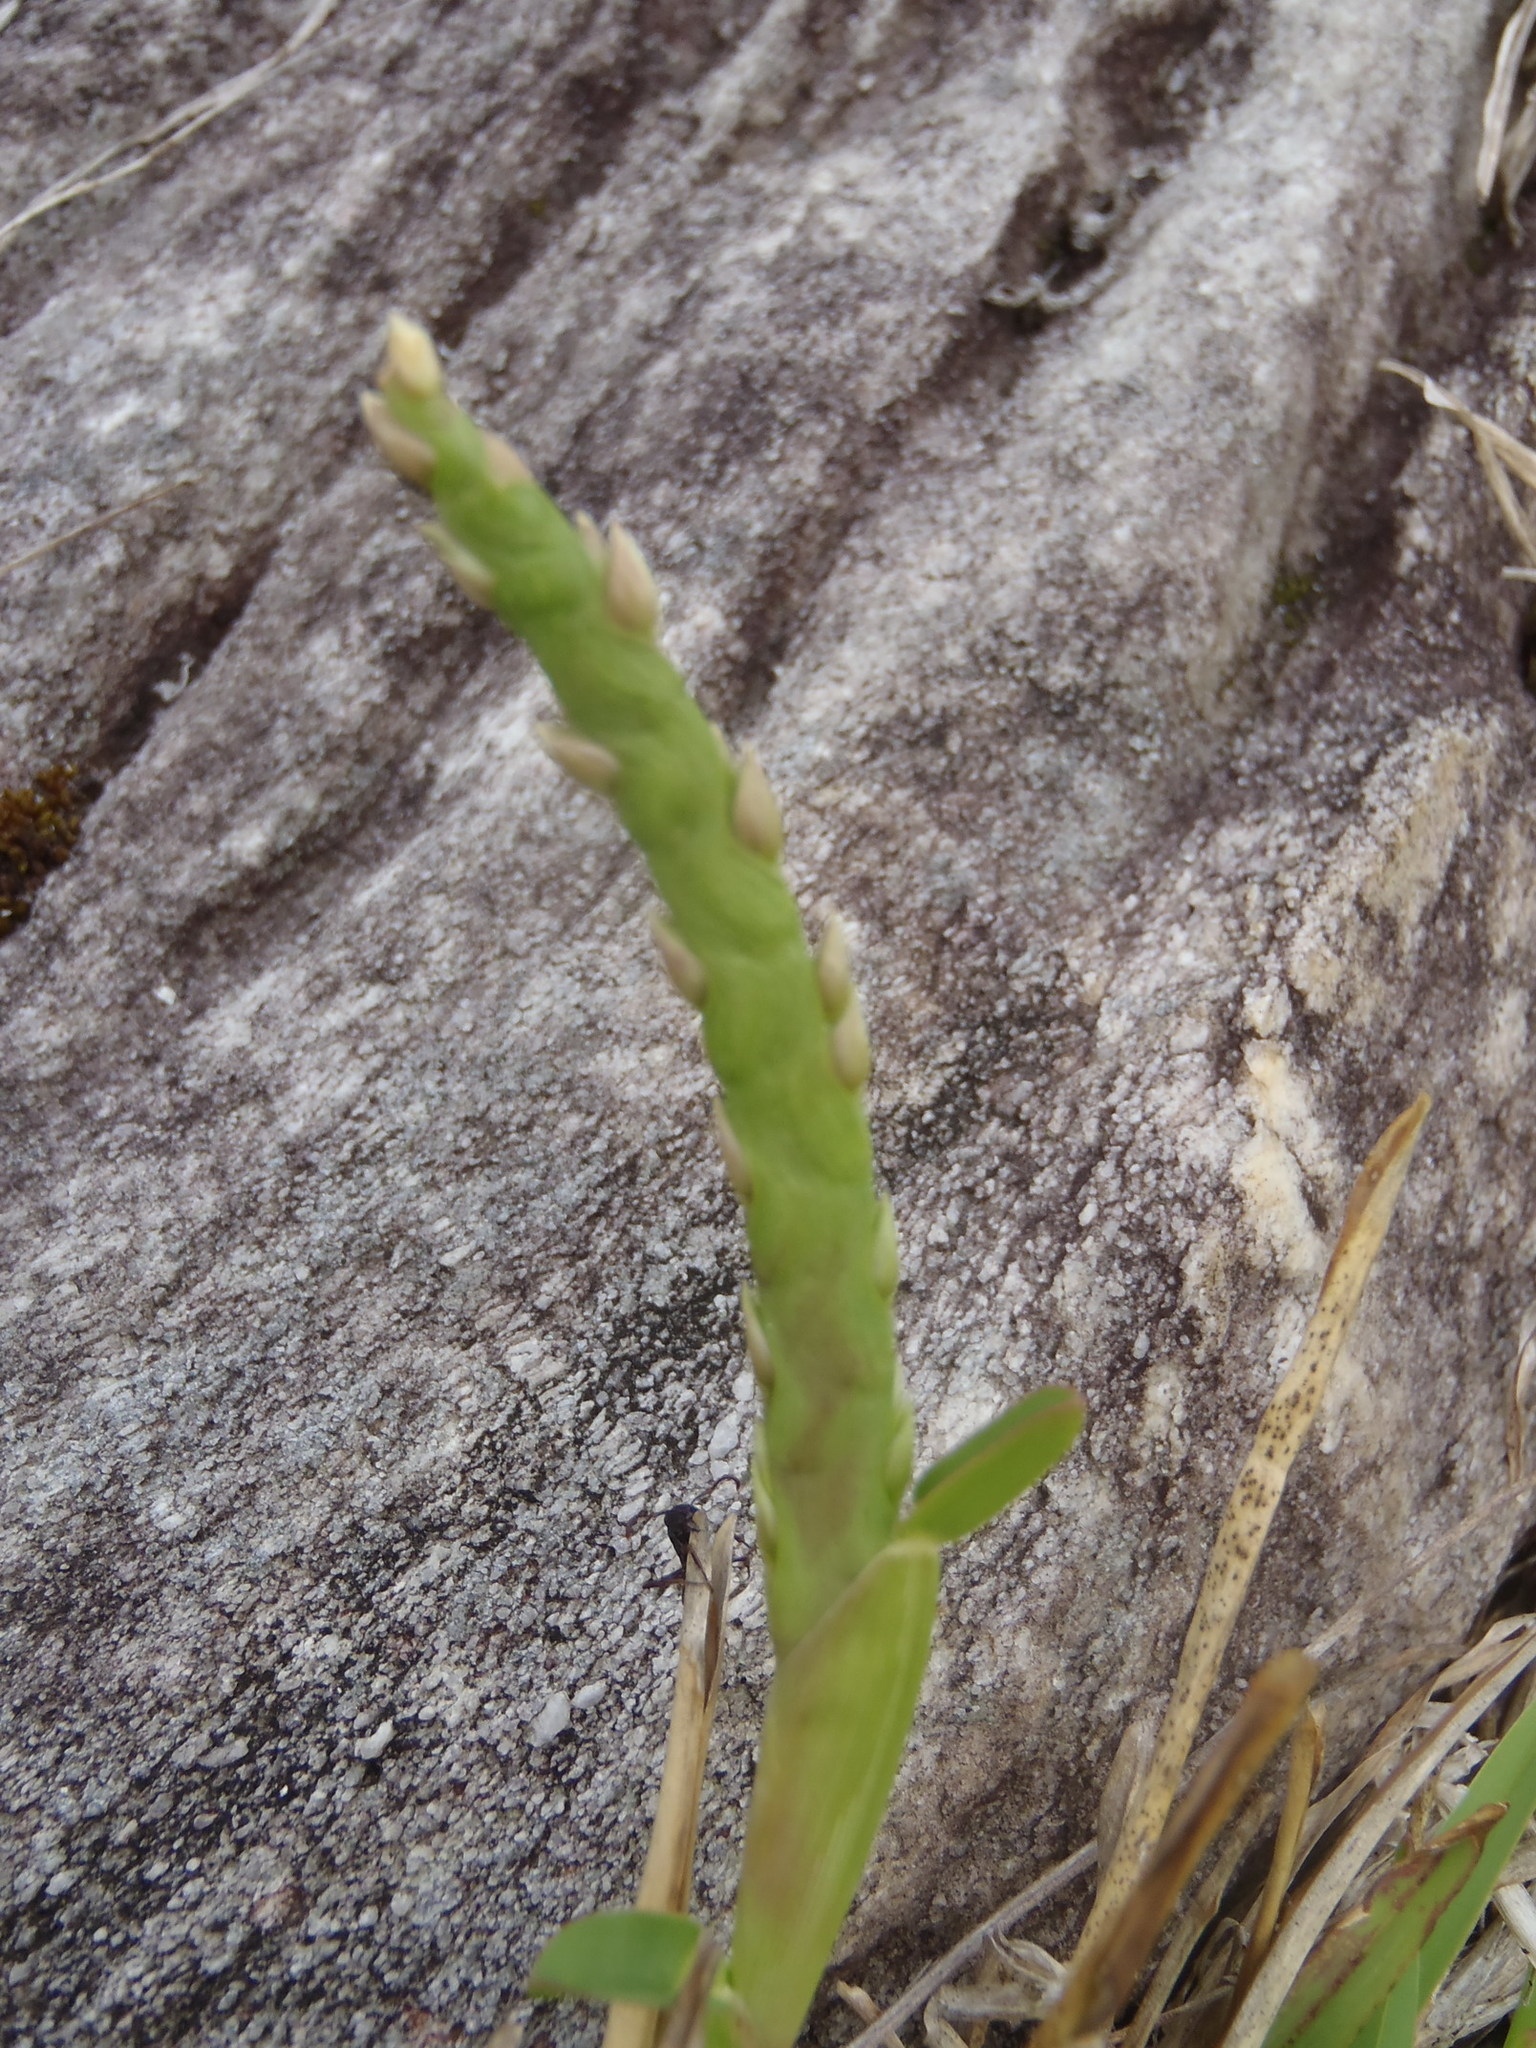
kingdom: Plantae
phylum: Tracheophyta
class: Liliopsida
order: Poales
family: Poaceae
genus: Stenotaphrum
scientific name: Stenotaphrum secundatum
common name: St. augustine grass
